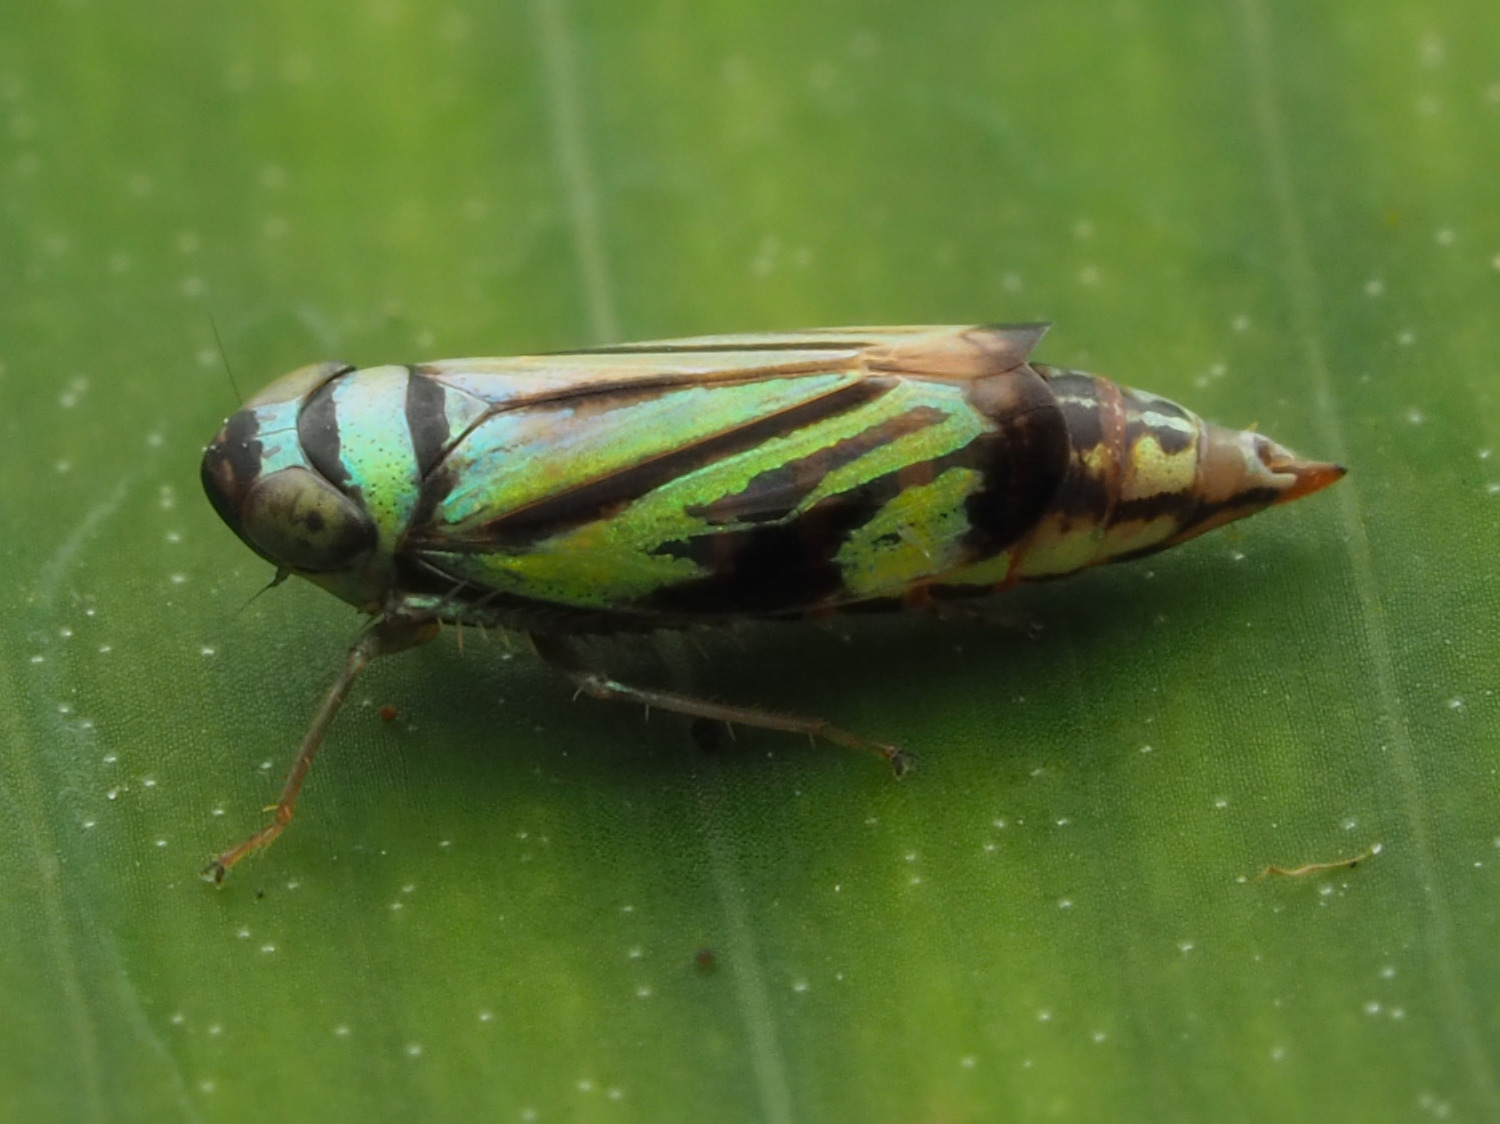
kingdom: Animalia
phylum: Arthropoda
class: Insecta
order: Hemiptera
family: Cicadellidae
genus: Stirellus
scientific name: Stirellus bicolor
